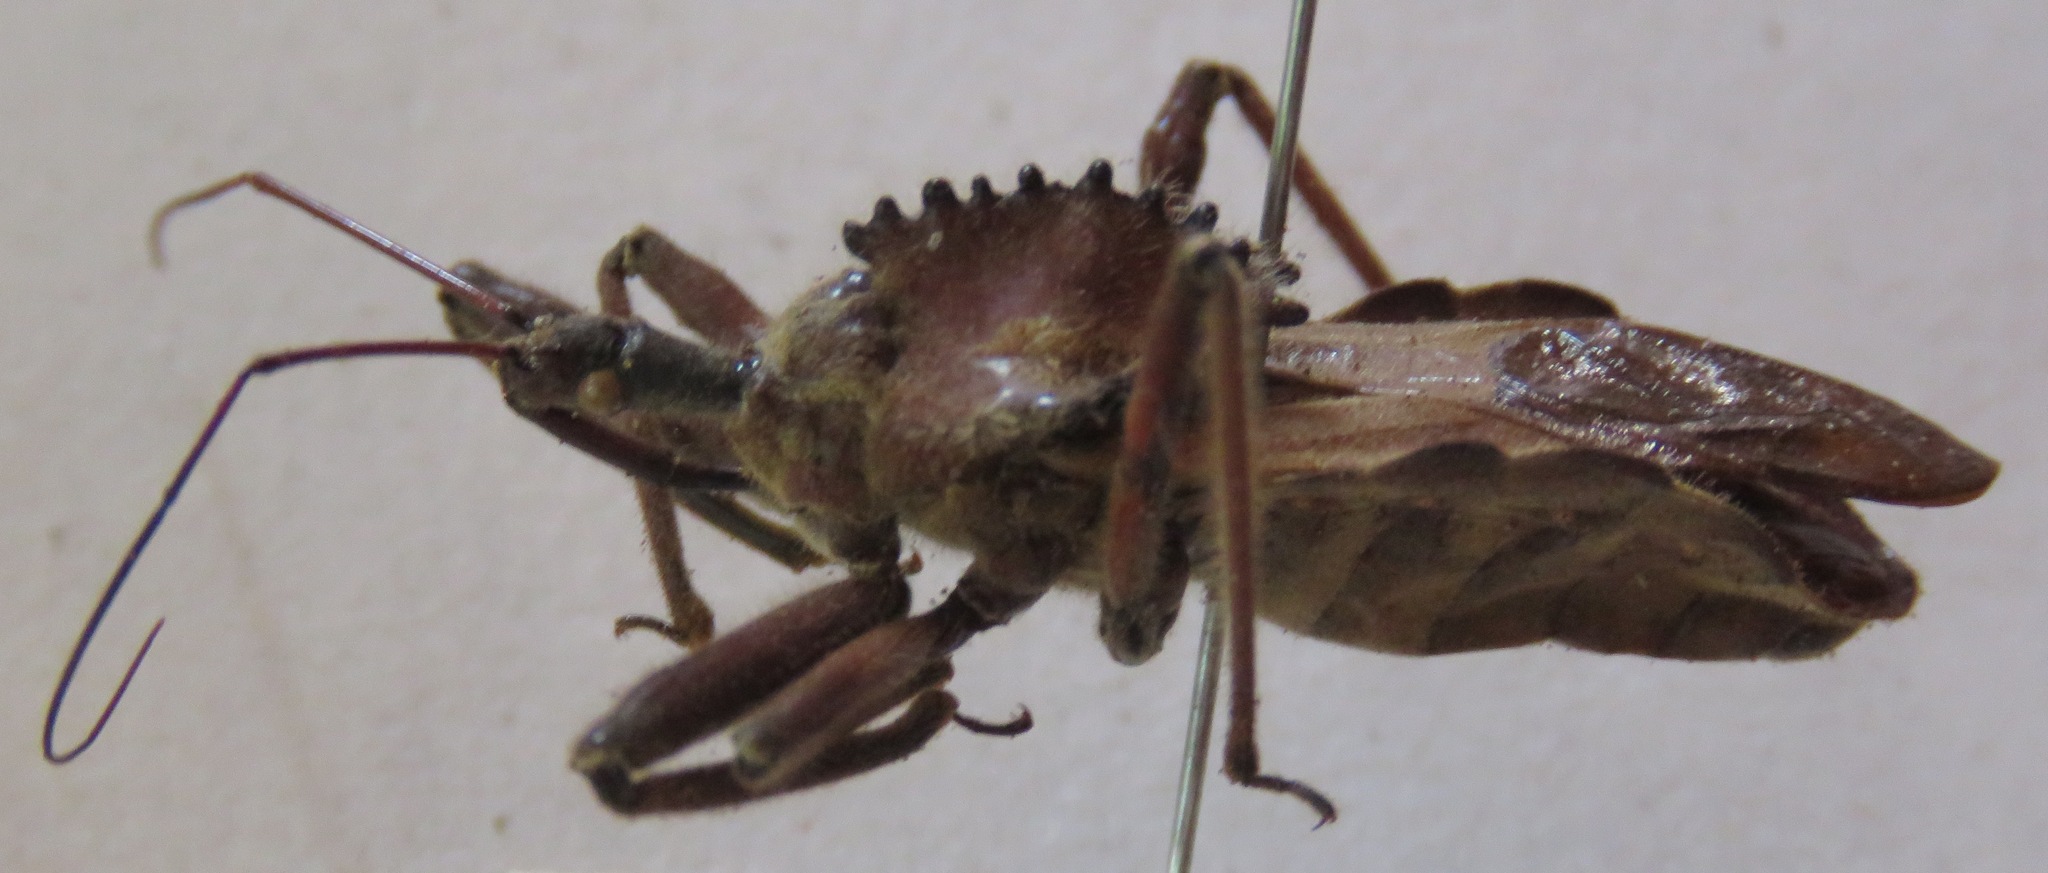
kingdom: Animalia
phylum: Arthropoda
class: Insecta
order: Hemiptera
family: Reduviidae
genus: Arilus
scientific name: Arilus cristatus
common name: North american wheel bug
